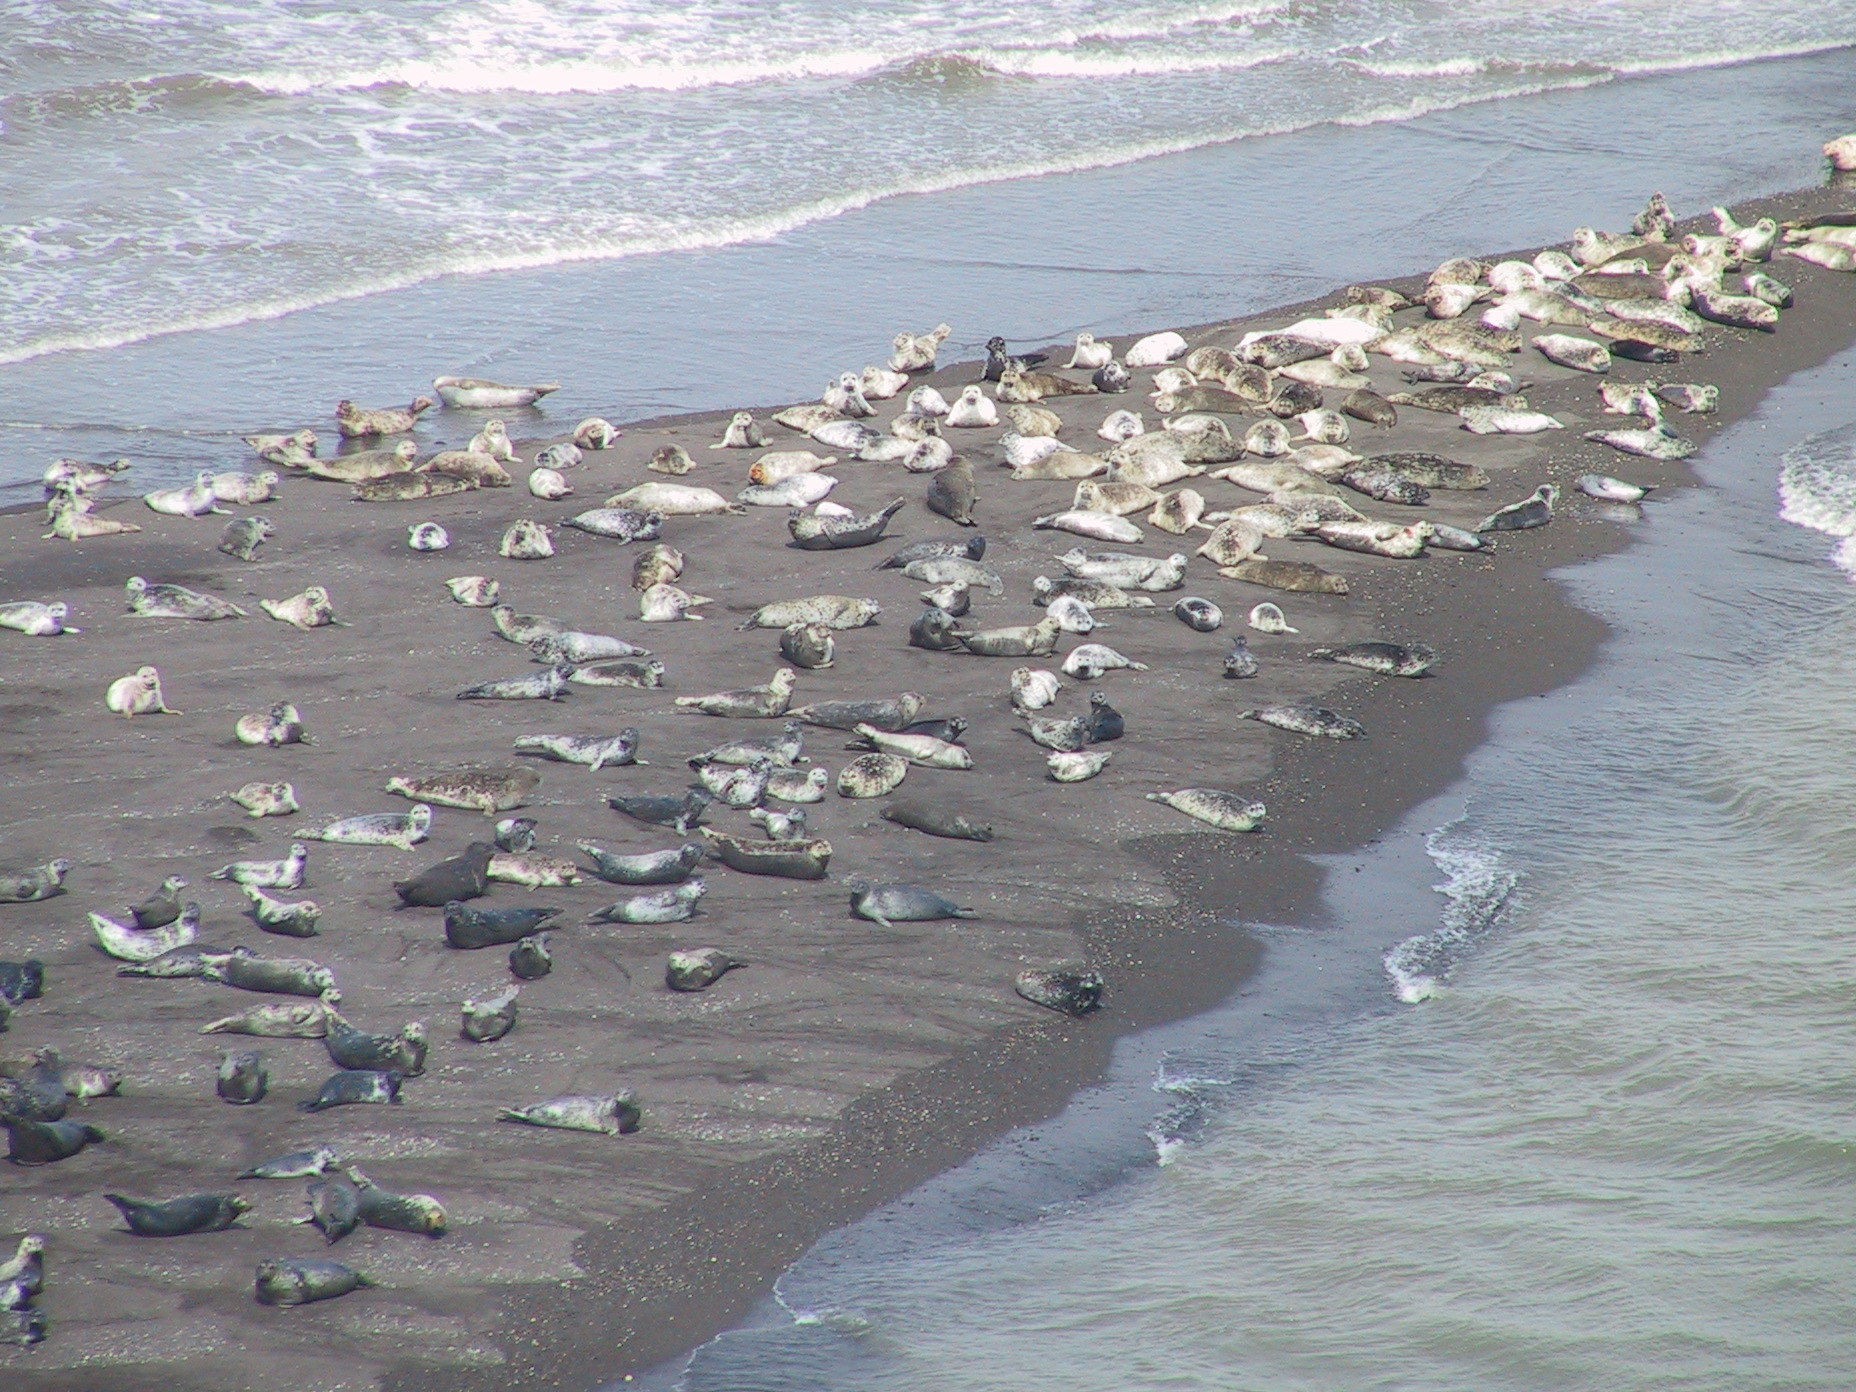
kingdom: Animalia
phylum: Chordata
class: Mammalia
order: Carnivora
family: Phocidae
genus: Phoca
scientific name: Phoca vitulina
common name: Harbor seal
